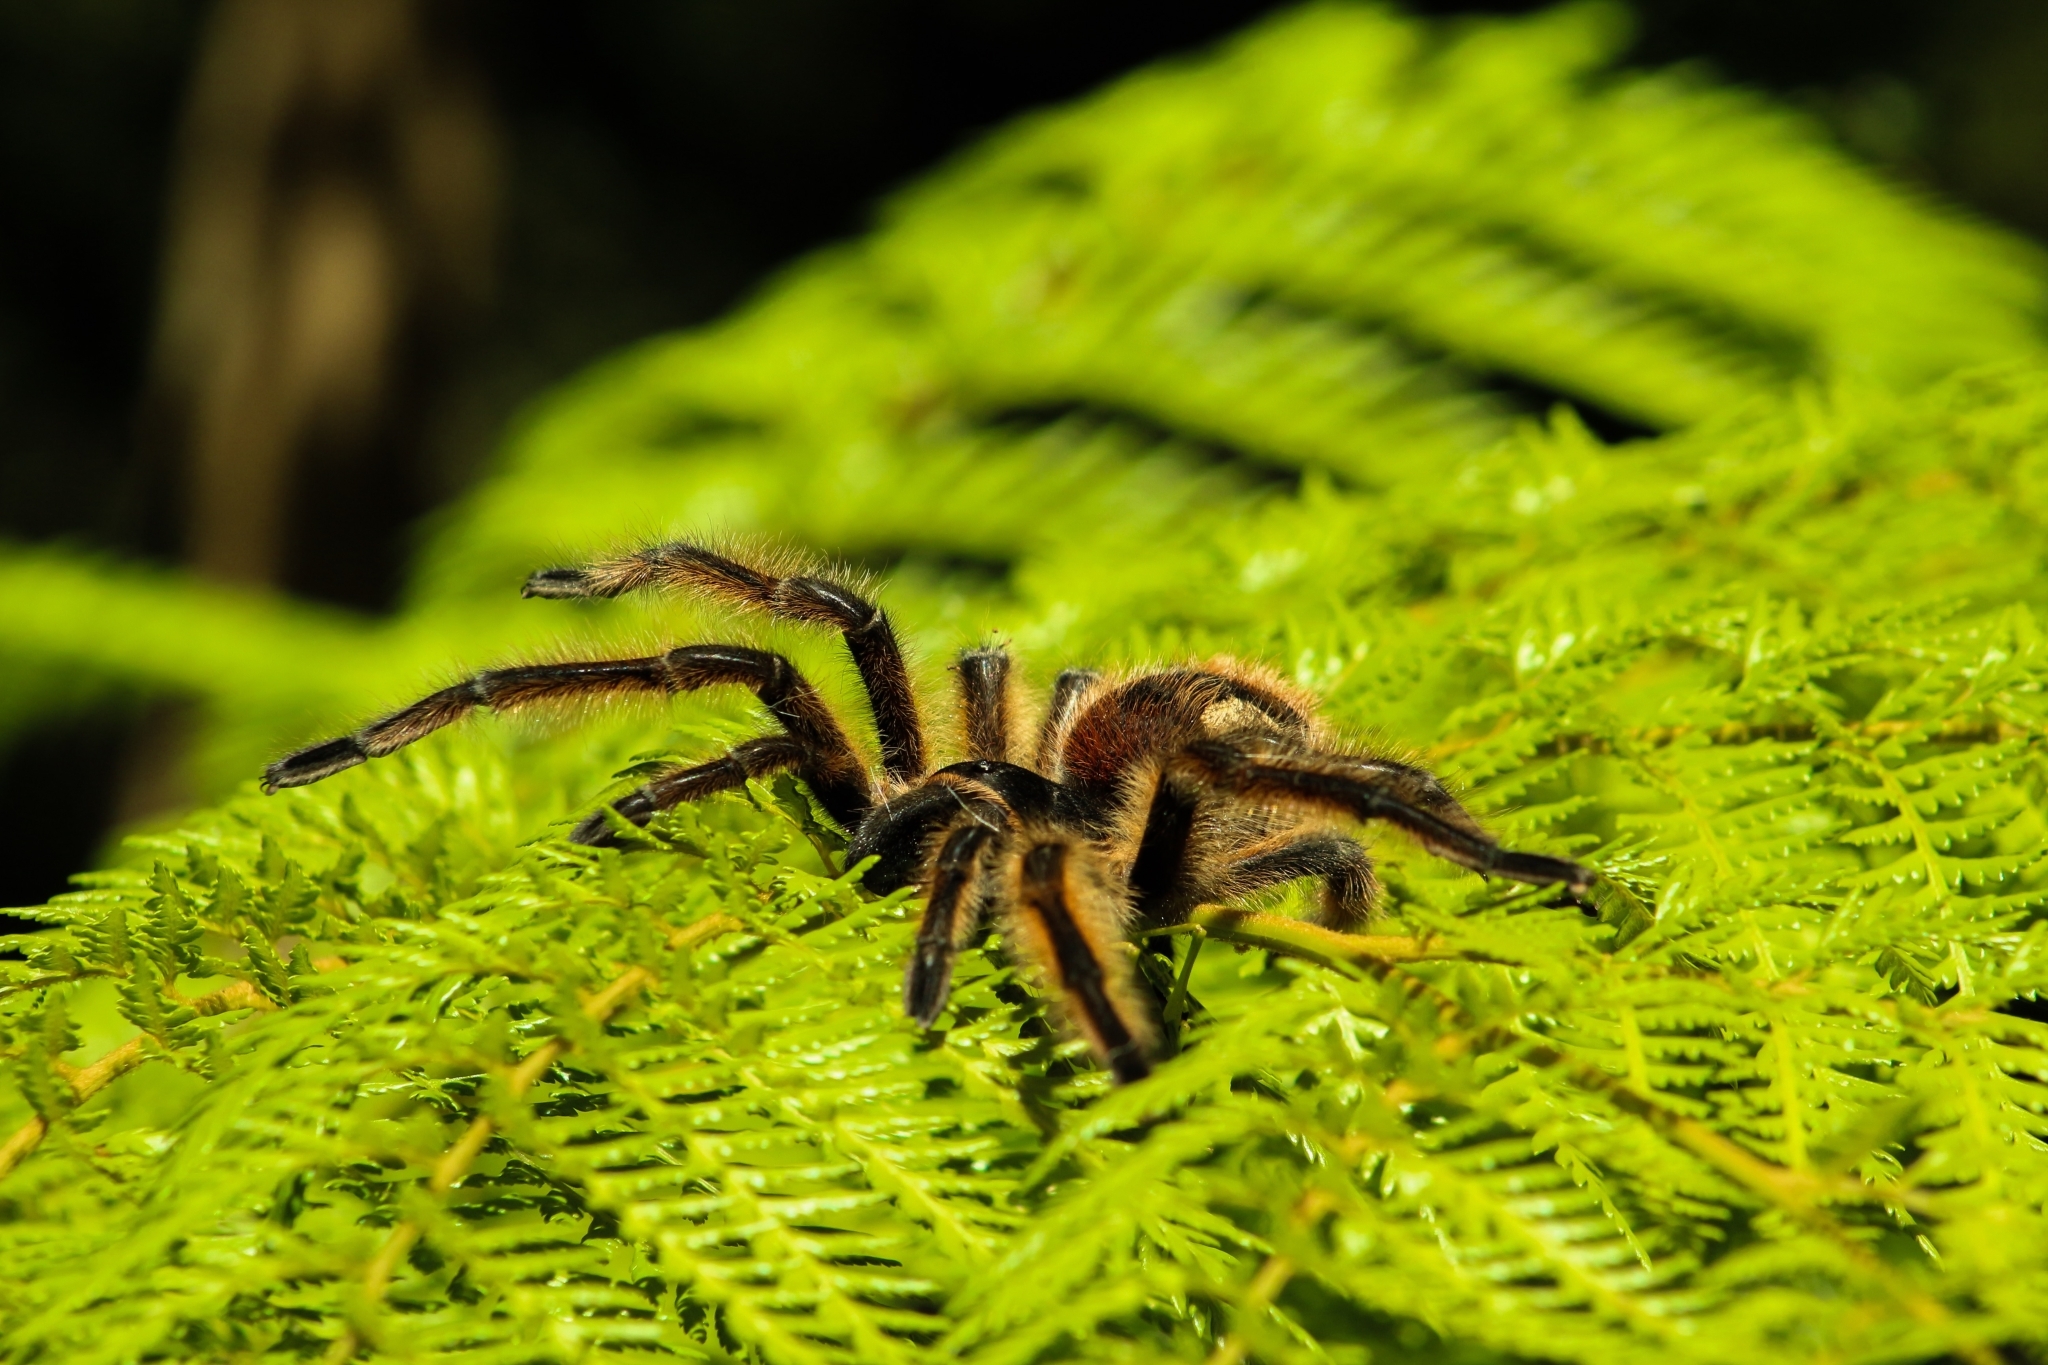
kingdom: Animalia
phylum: Arthropoda
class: Arachnida
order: Araneae
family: Theraphosidae
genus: Phrixotrichus
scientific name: Phrixotrichus vulpinus
